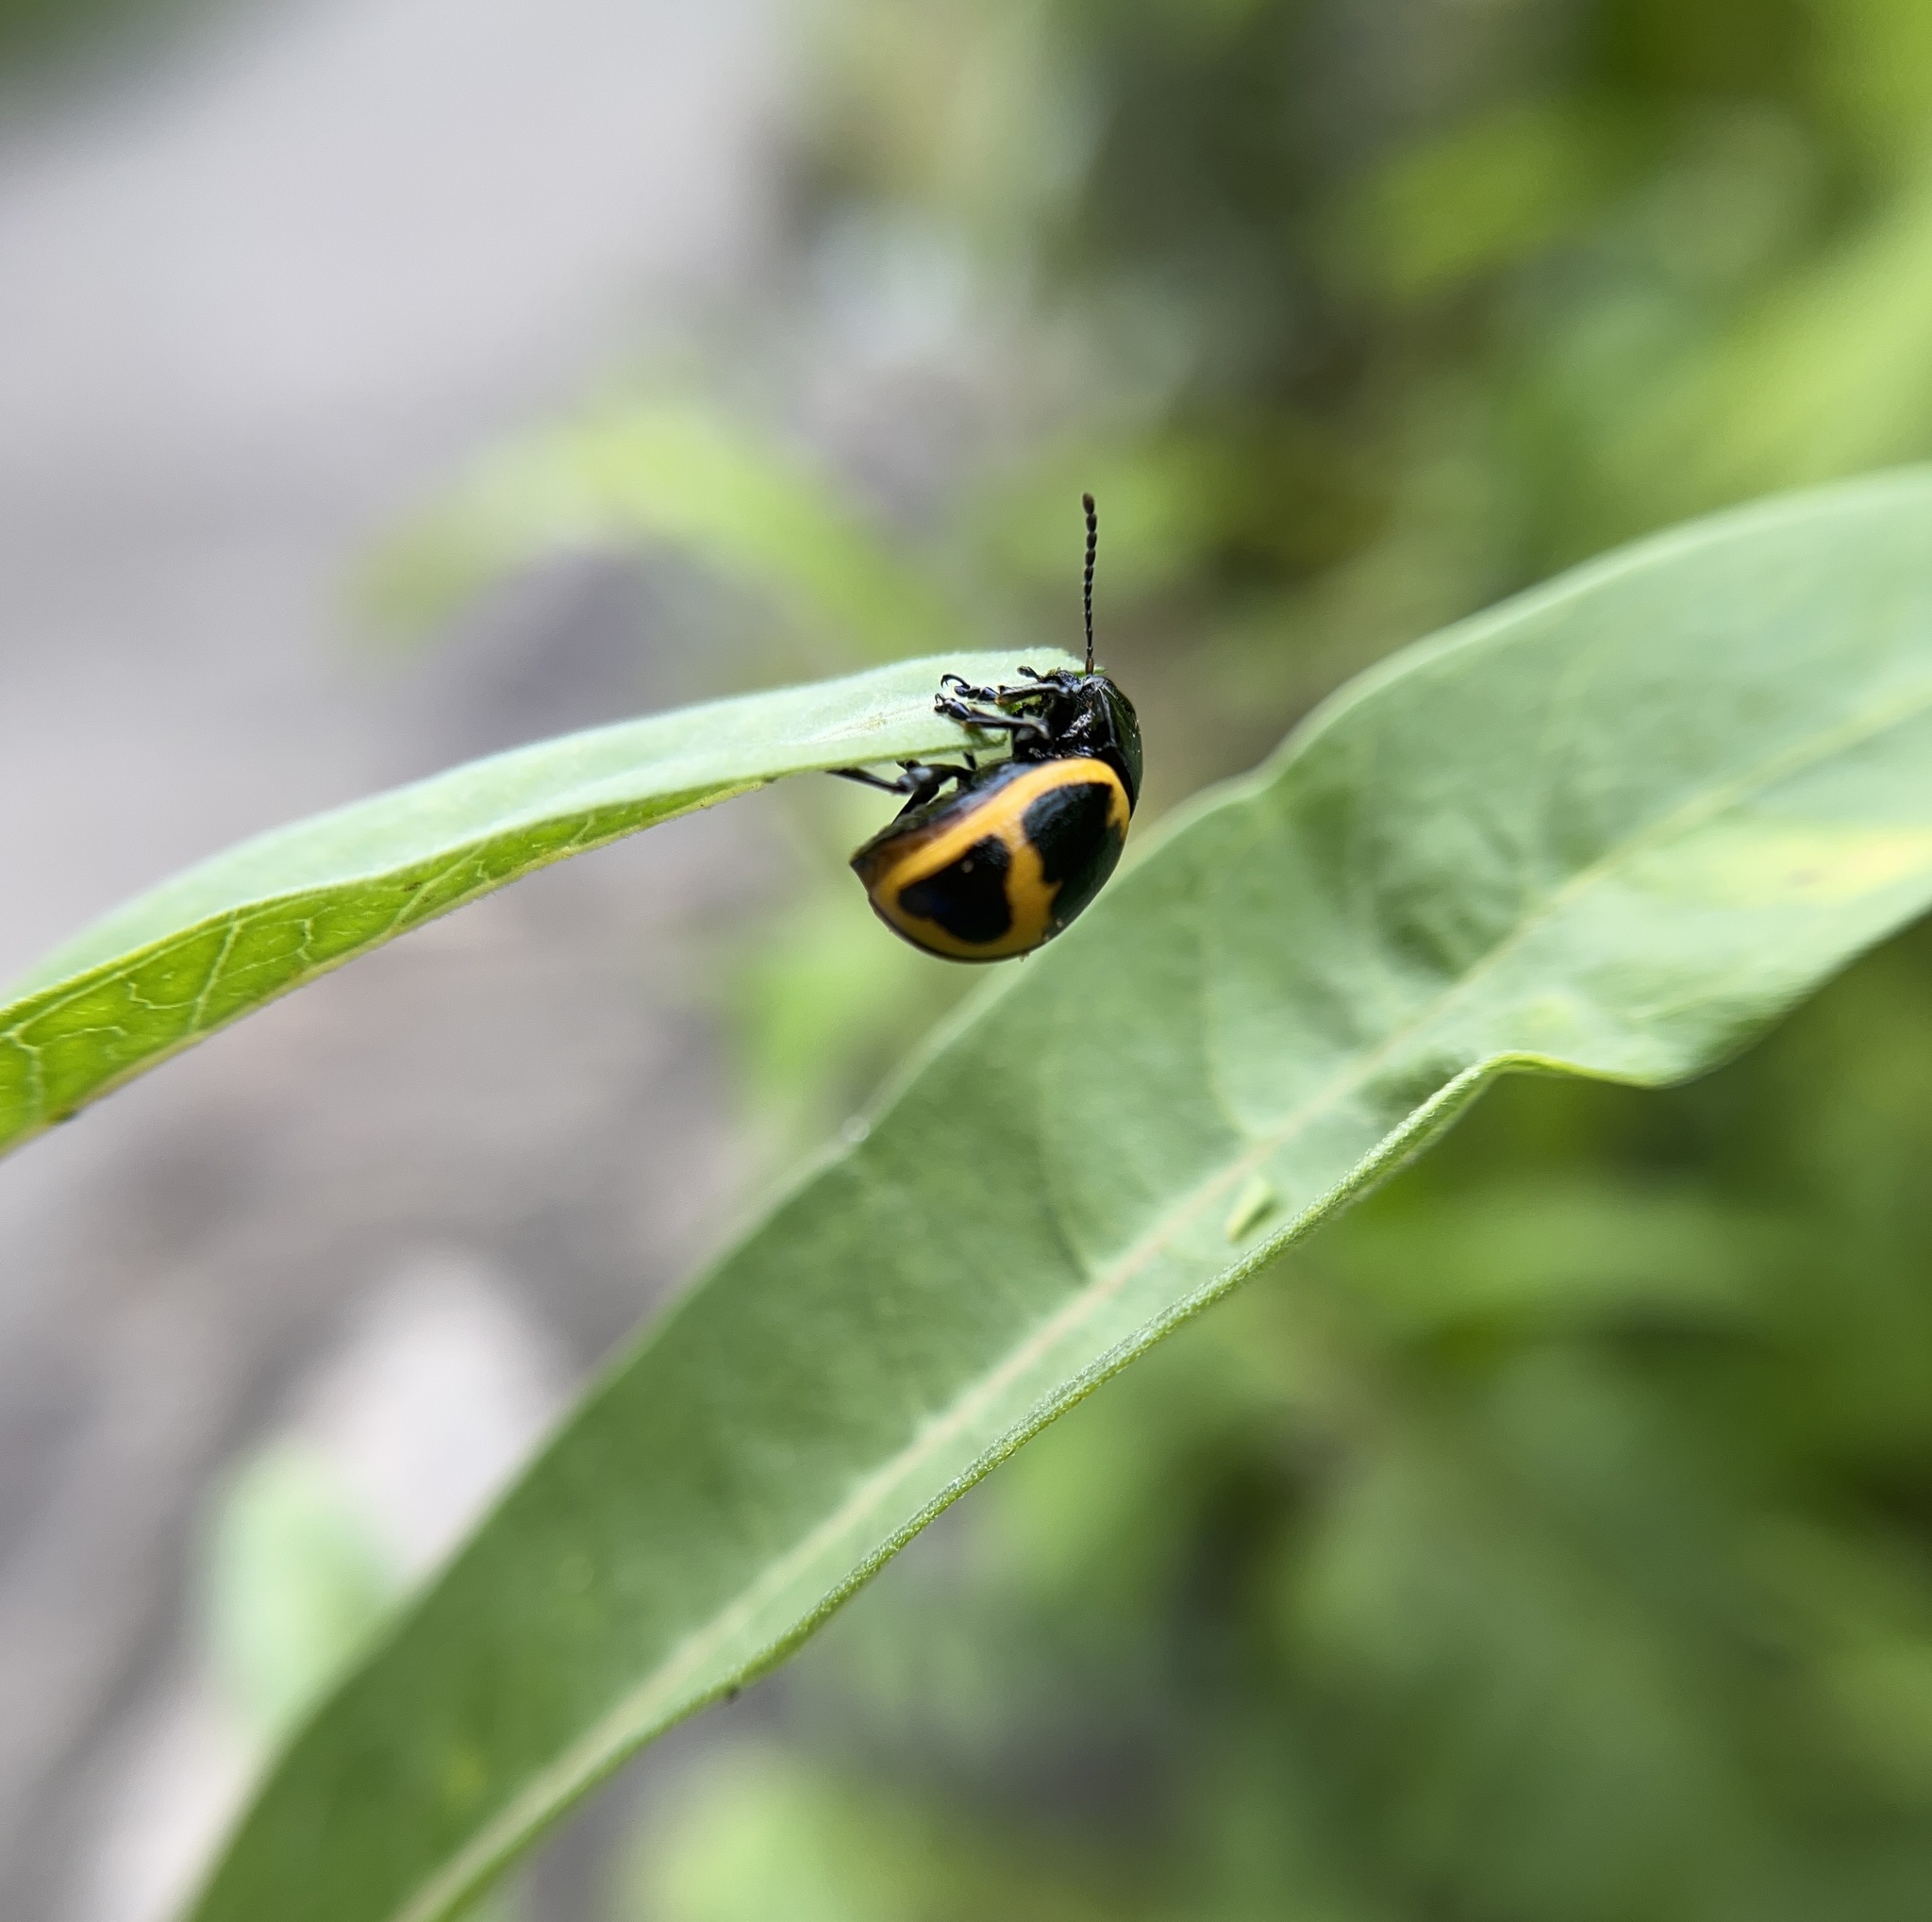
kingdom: Animalia
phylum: Arthropoda
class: Insecta
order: Coleoptera
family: Chrysomelidae
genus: Labidomera
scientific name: Labidomera clivicollis
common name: Swamp milkweed leaf beetle
